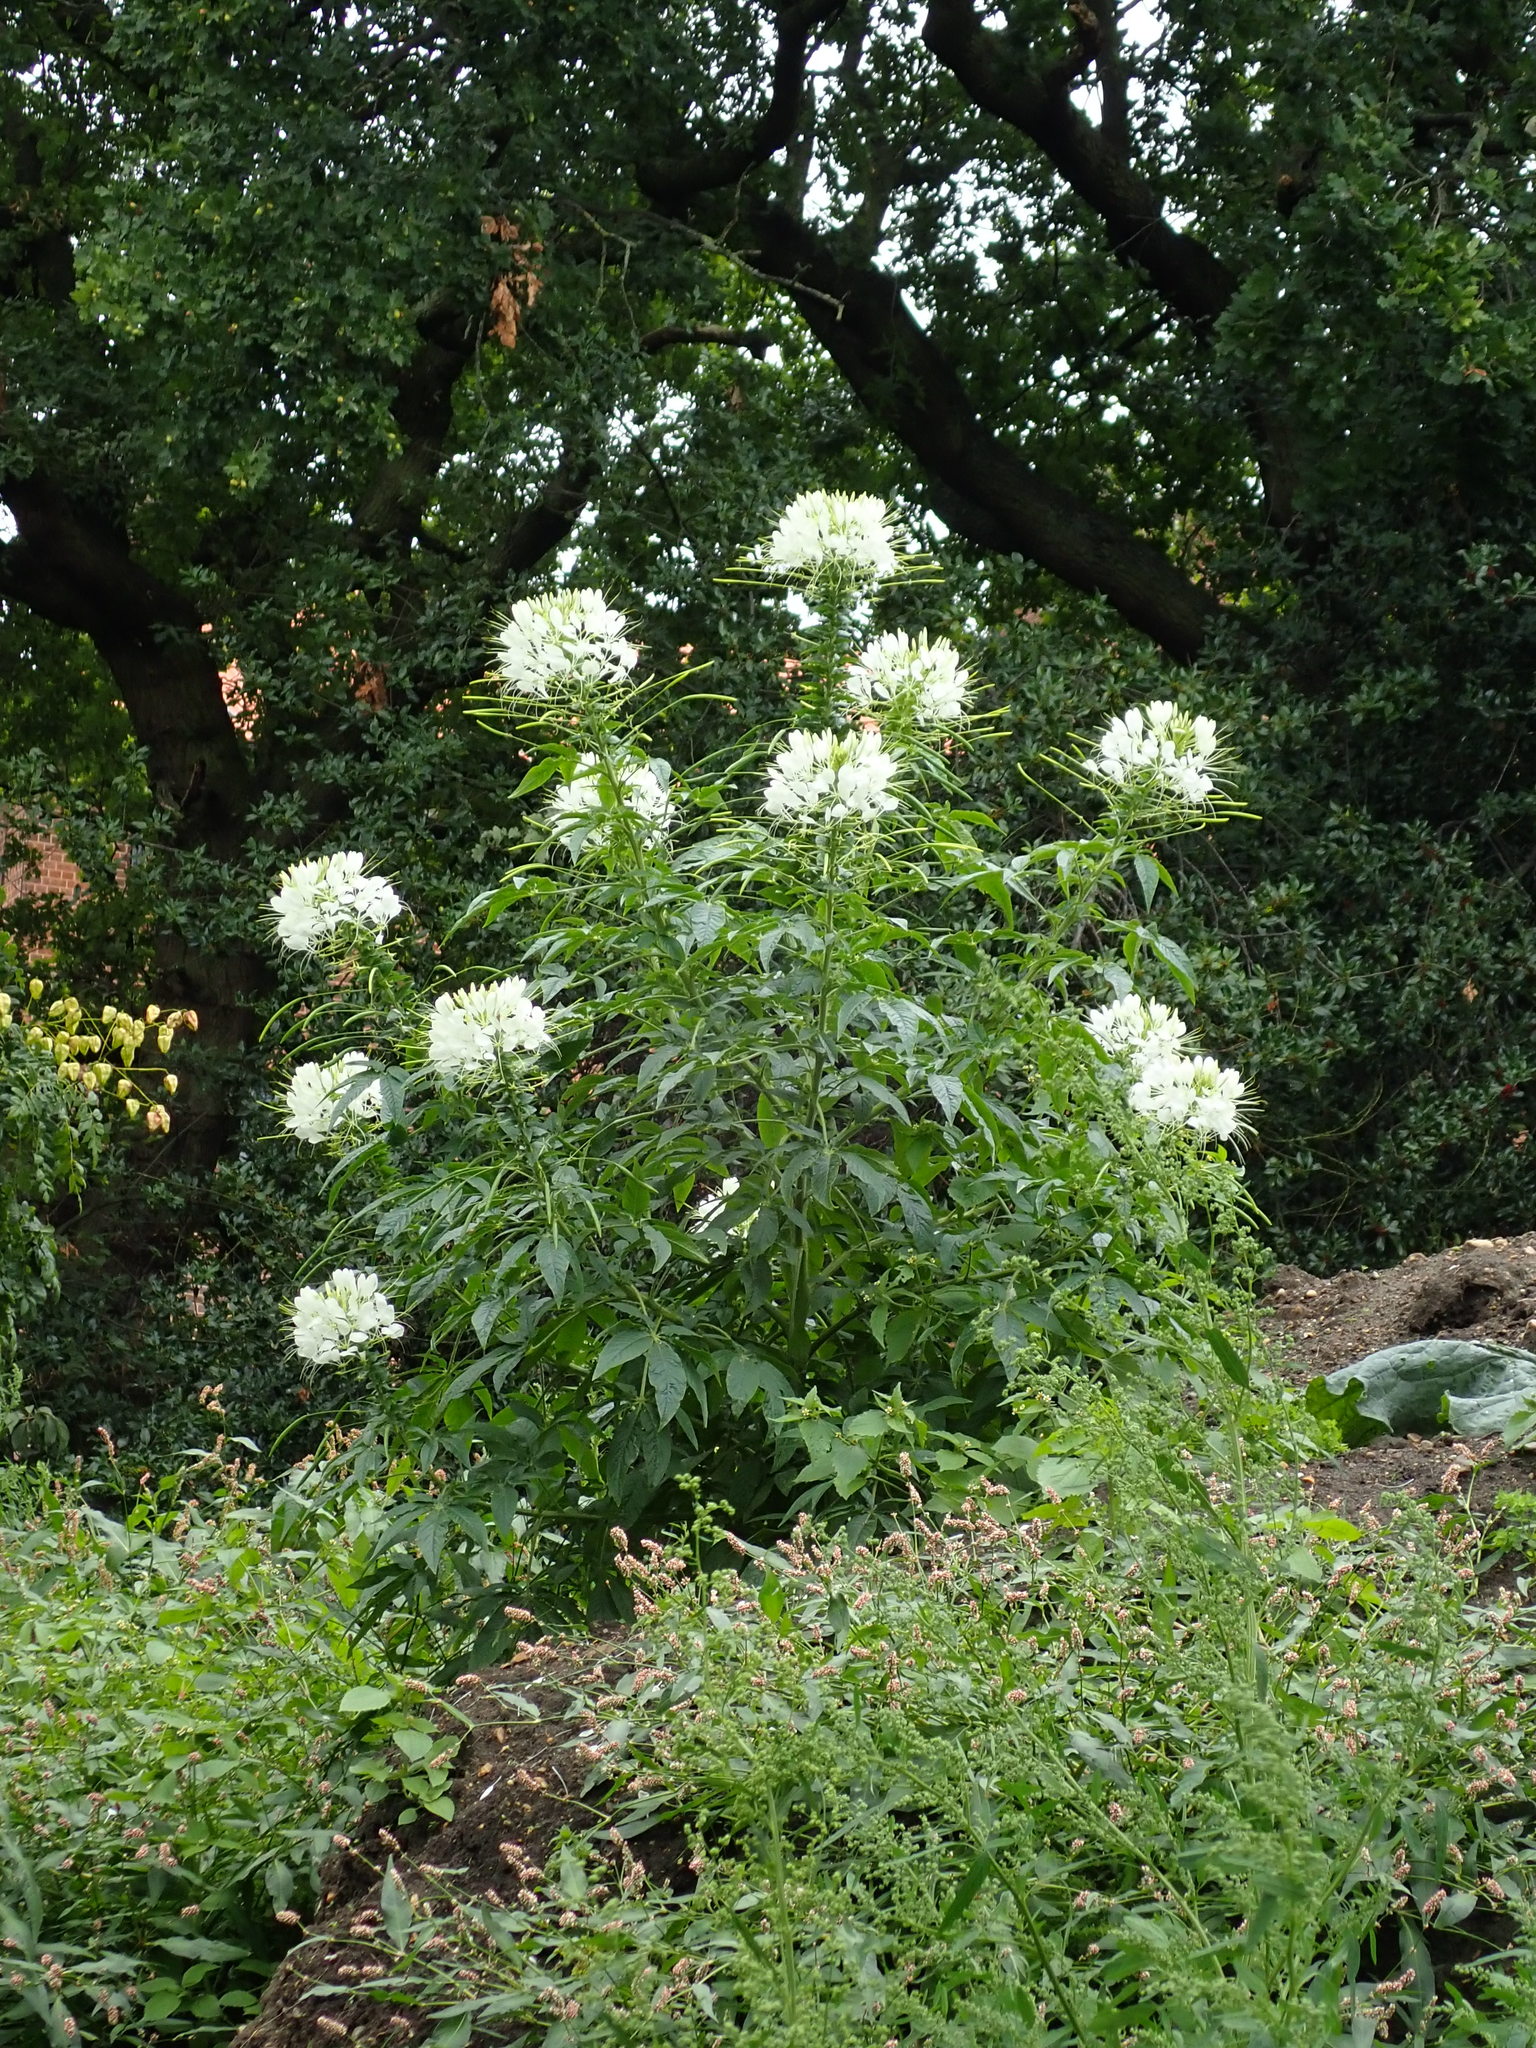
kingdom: Plantae
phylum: Tracheophyta
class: Magnoliopsida
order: Brassicales
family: Cleomaceae
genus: Tarenaya
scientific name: Tarenaya houtteana
